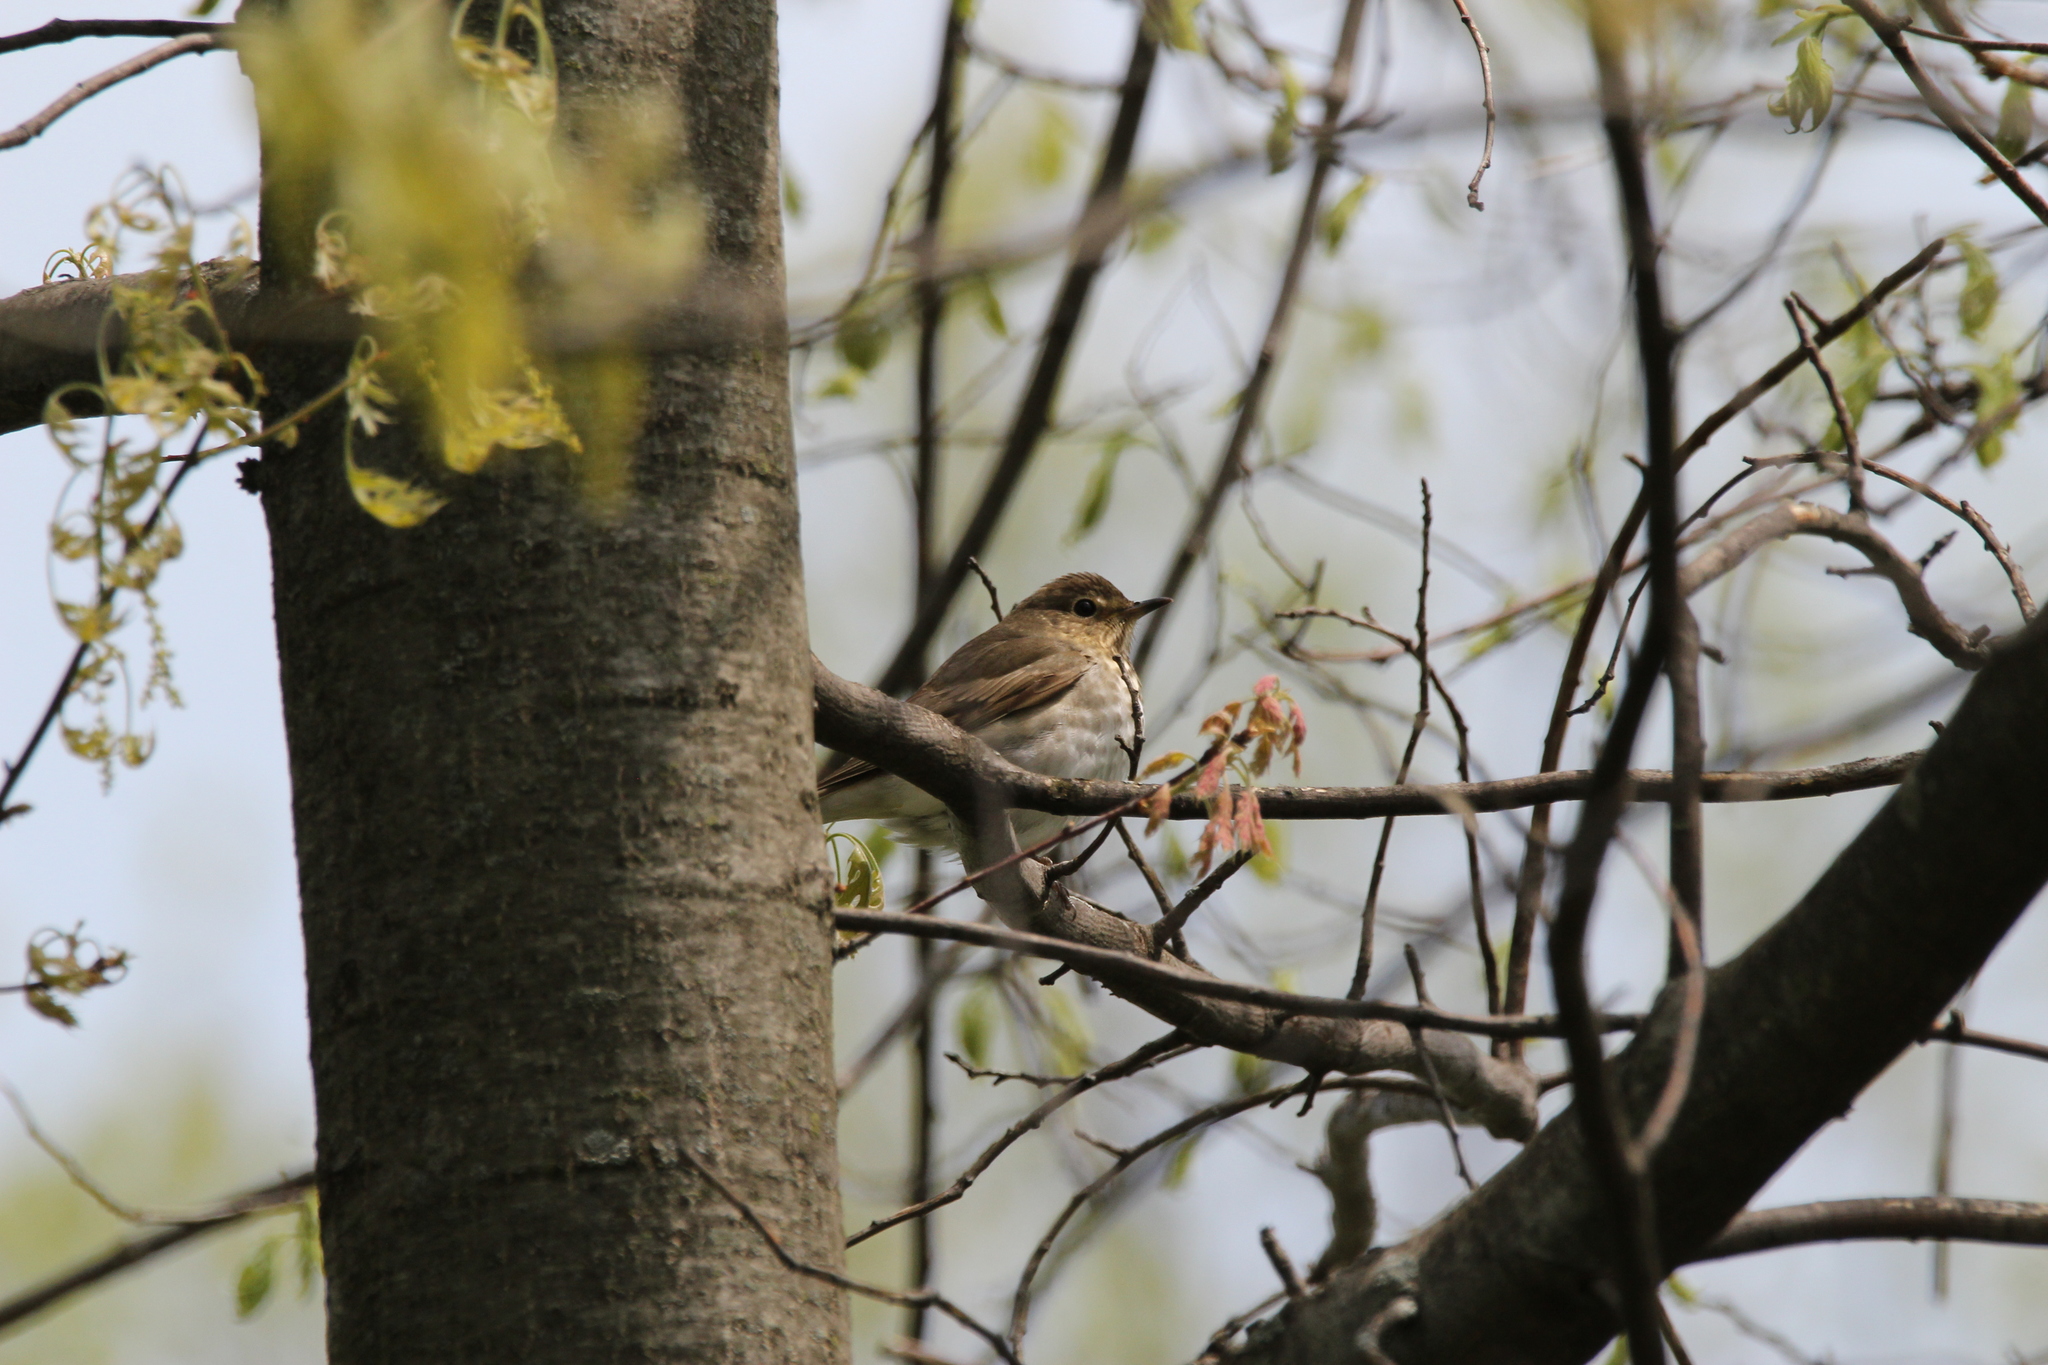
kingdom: Animalia
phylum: Chordata
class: Aves
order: Passeriformes
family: Turdidae
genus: Catharus
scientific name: Catharus ustulatus
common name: Swainson's thrush
